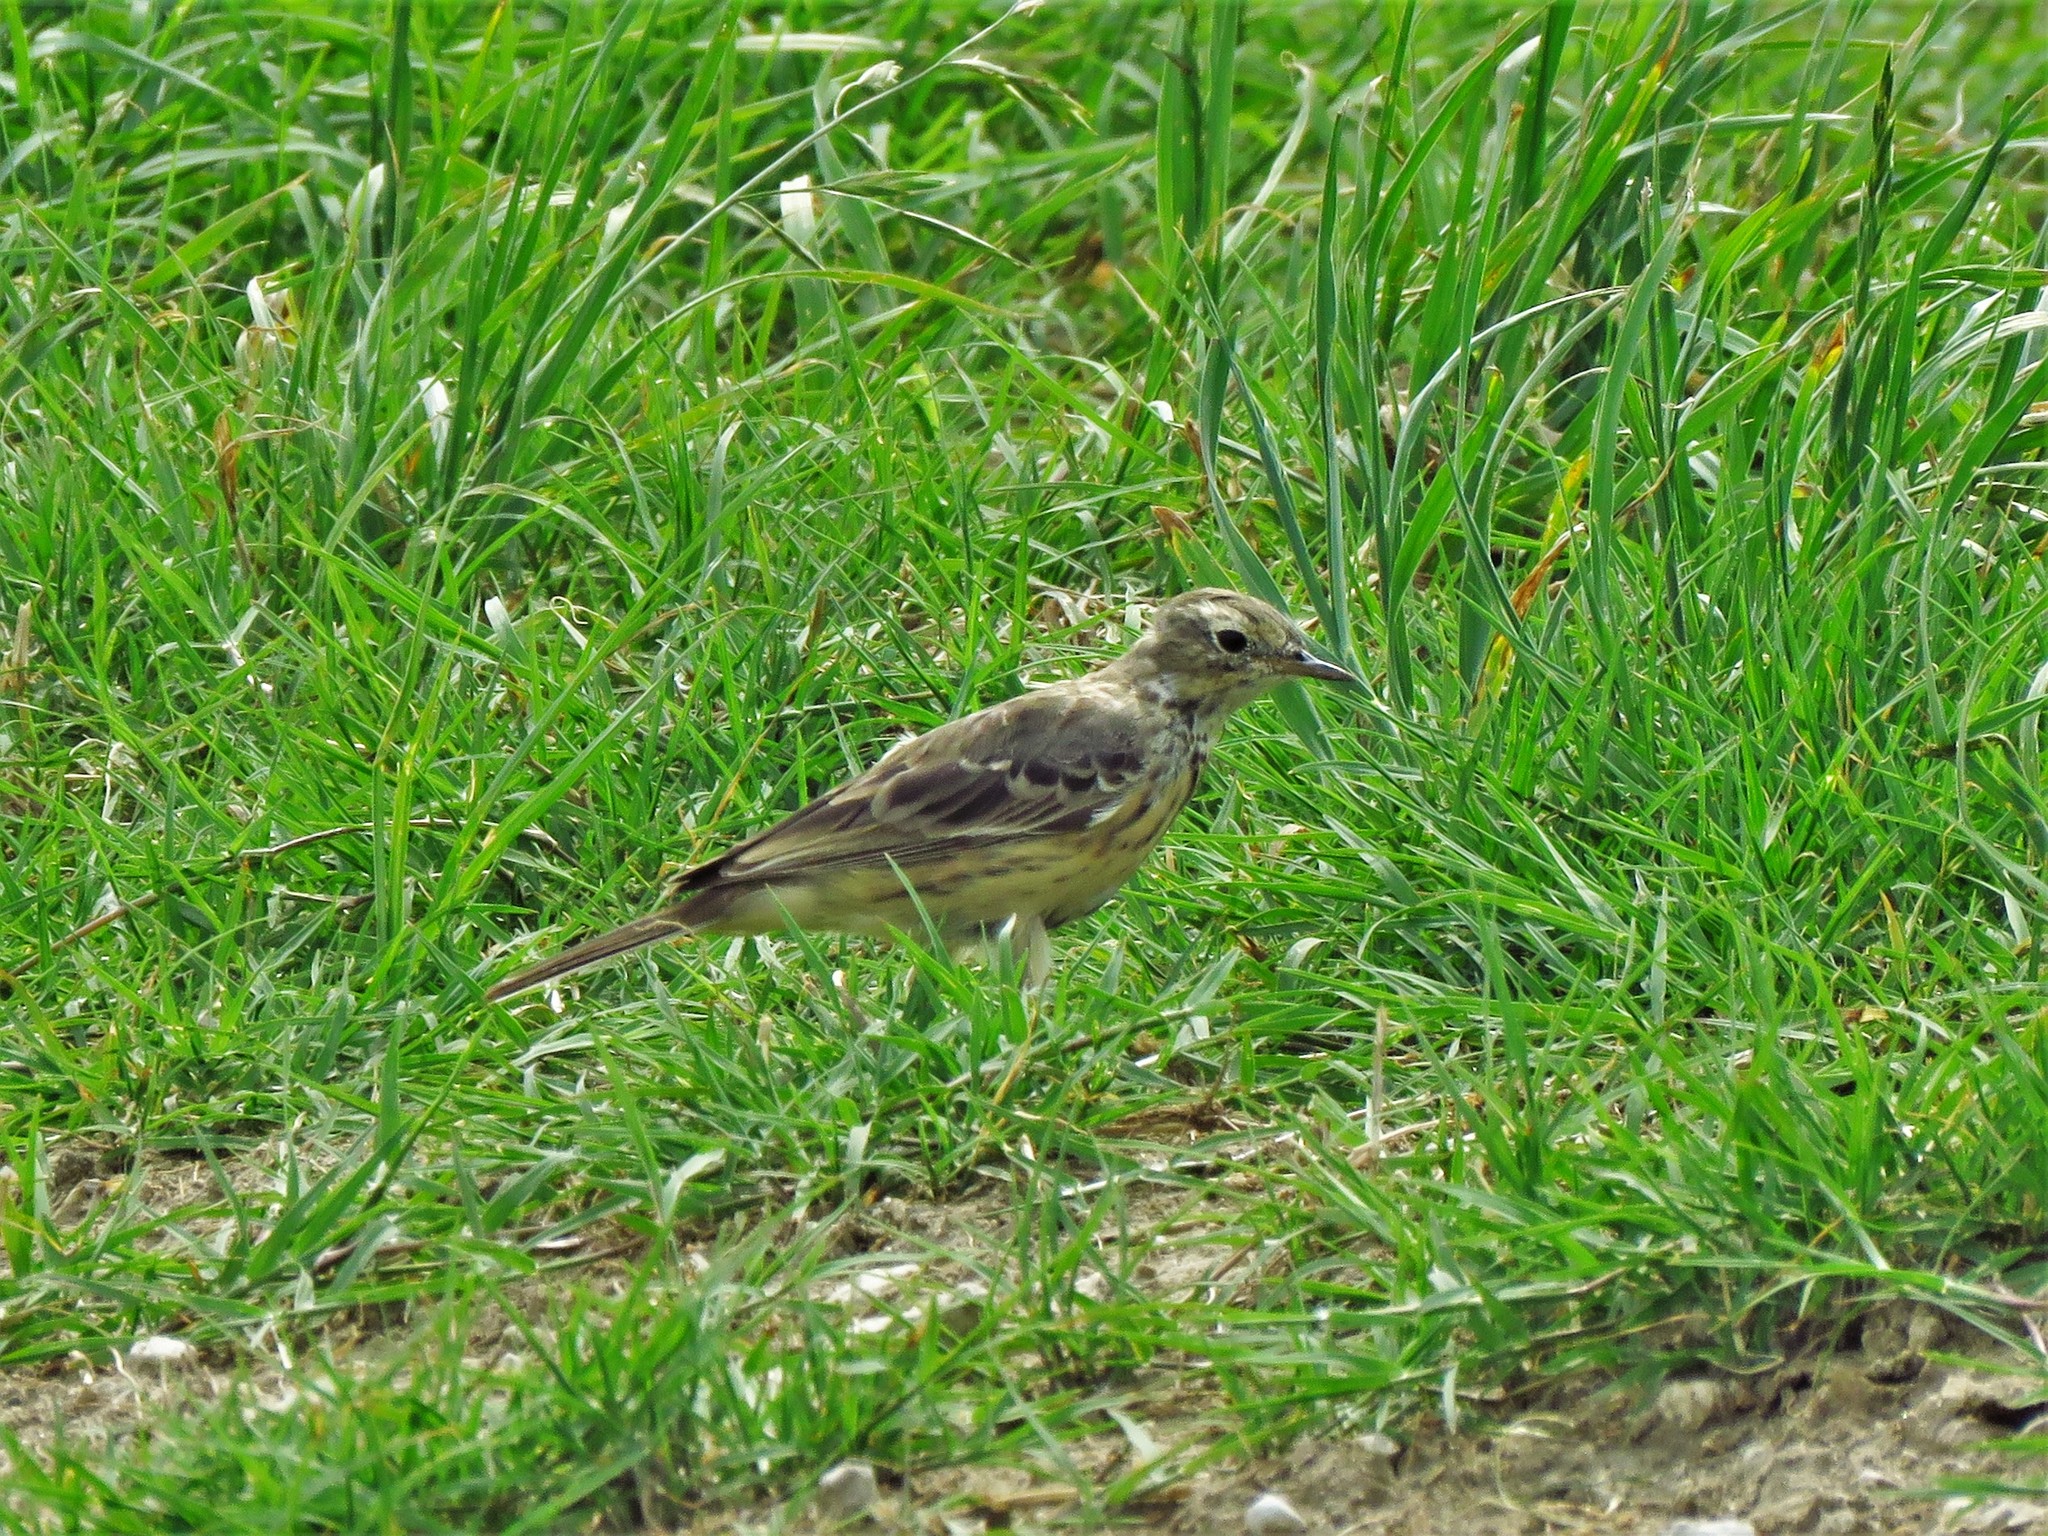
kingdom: Animalia
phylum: Chordata
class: Aves
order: Passeriformes
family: Motacillidae
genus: Anthus
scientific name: Anthus rubescens
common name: Buff-bellied pipit
